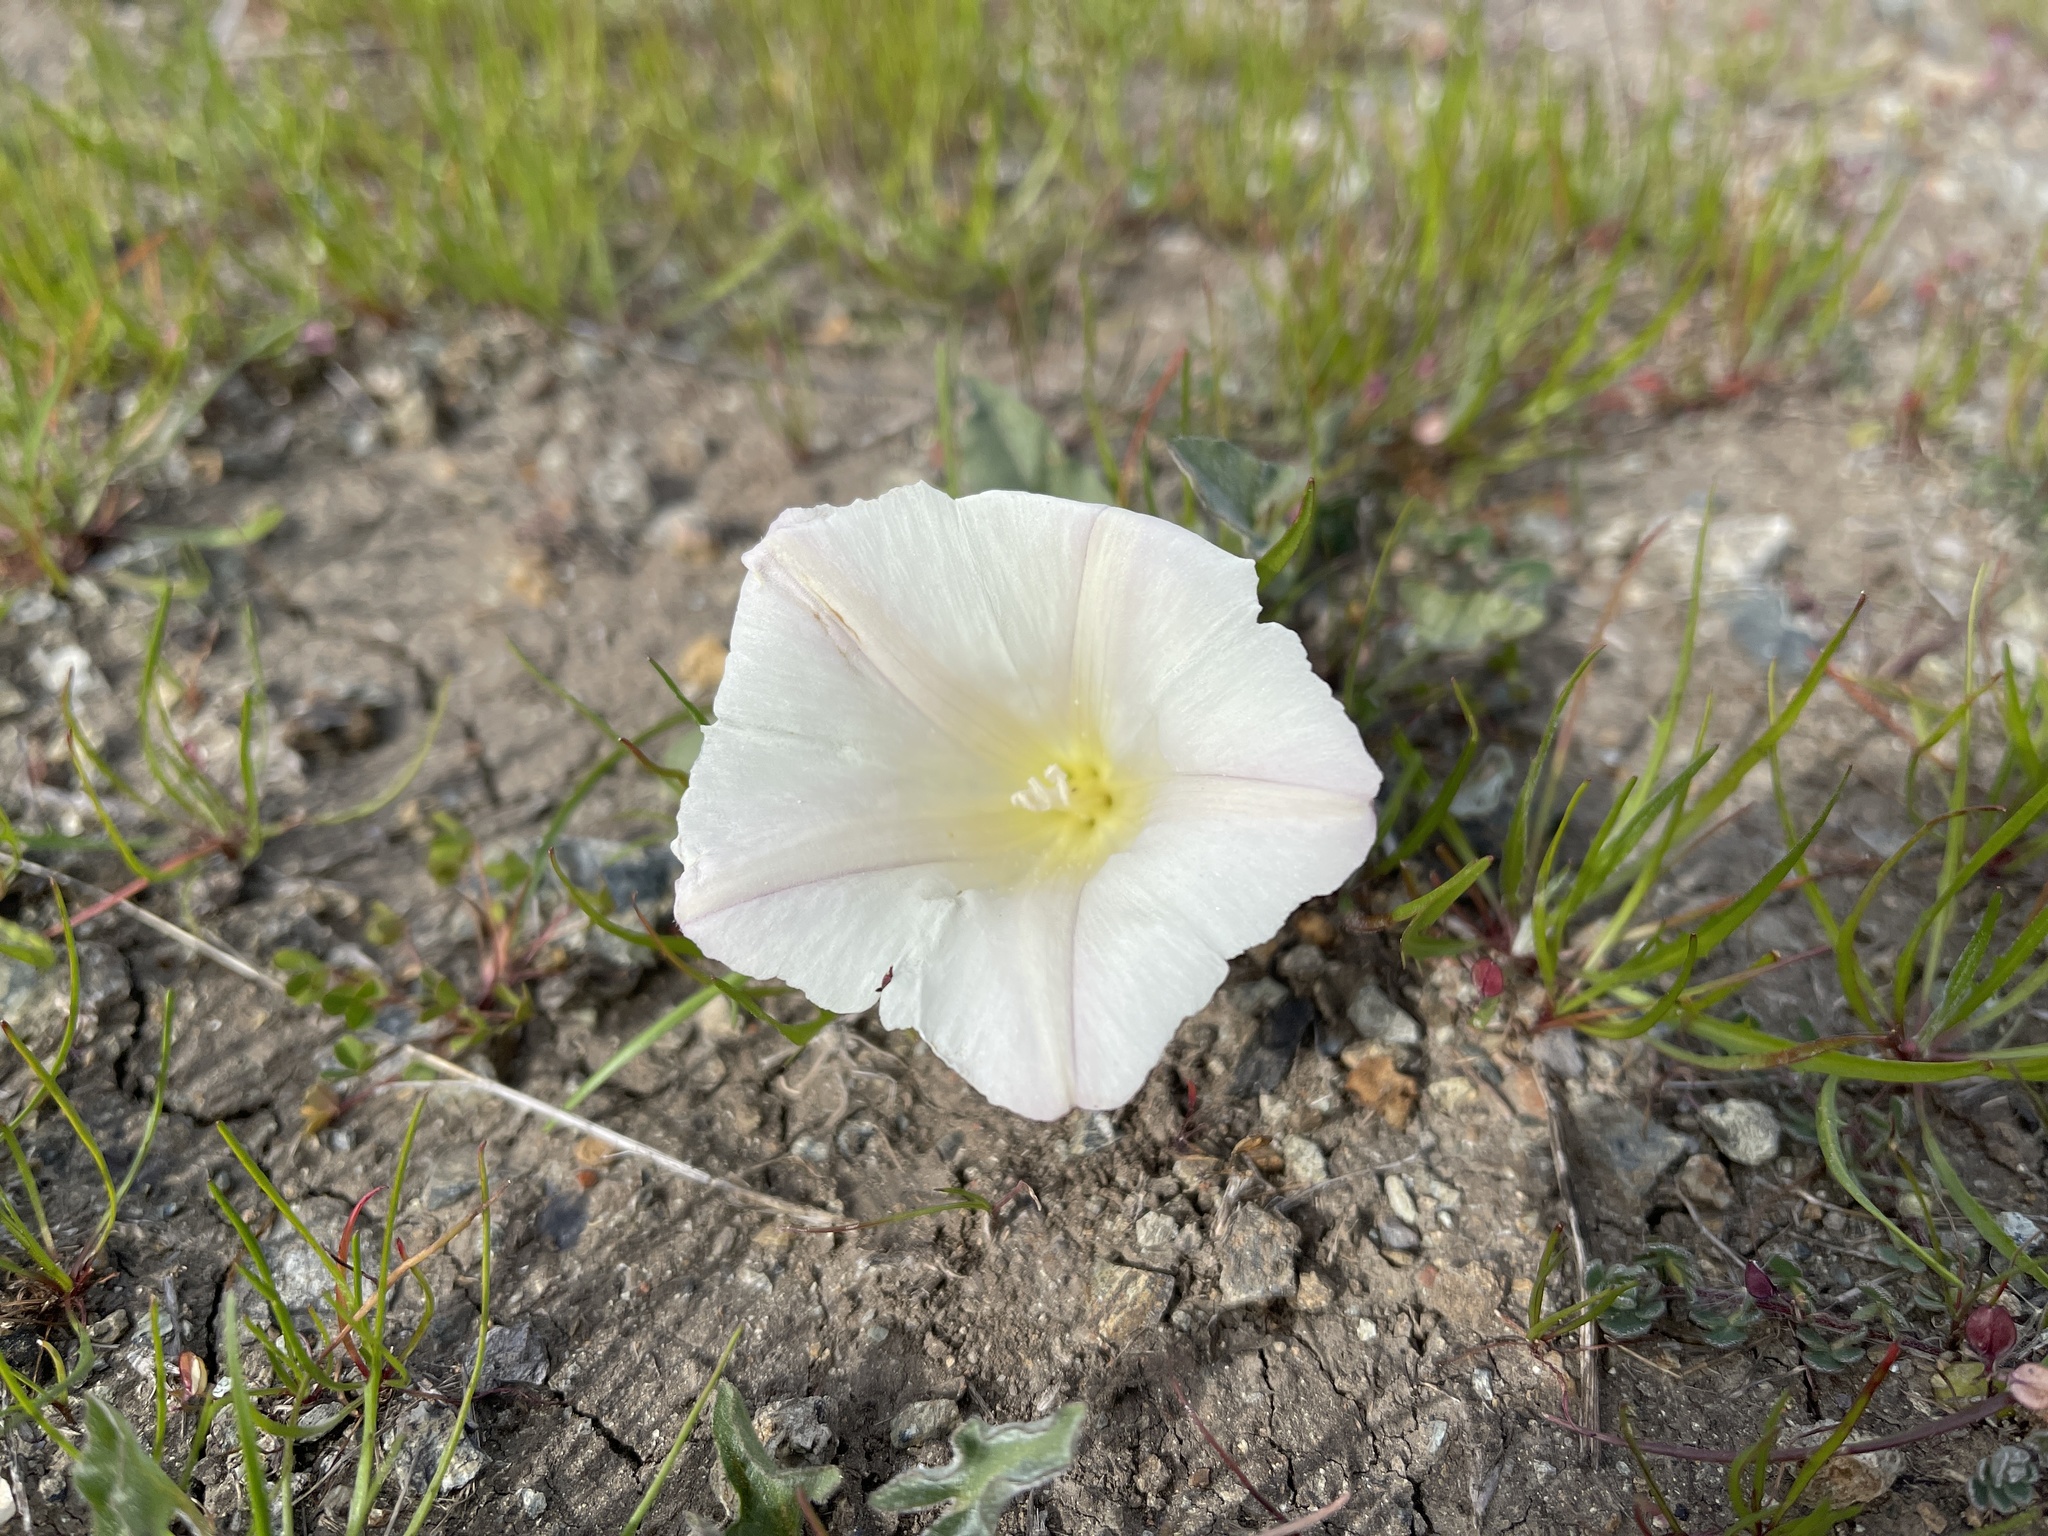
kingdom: Plantae
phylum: Tracheophyta
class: Magnoliopsida
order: Solanales
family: Convolvulaceae
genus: Calystegia
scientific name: Calystegia collina
